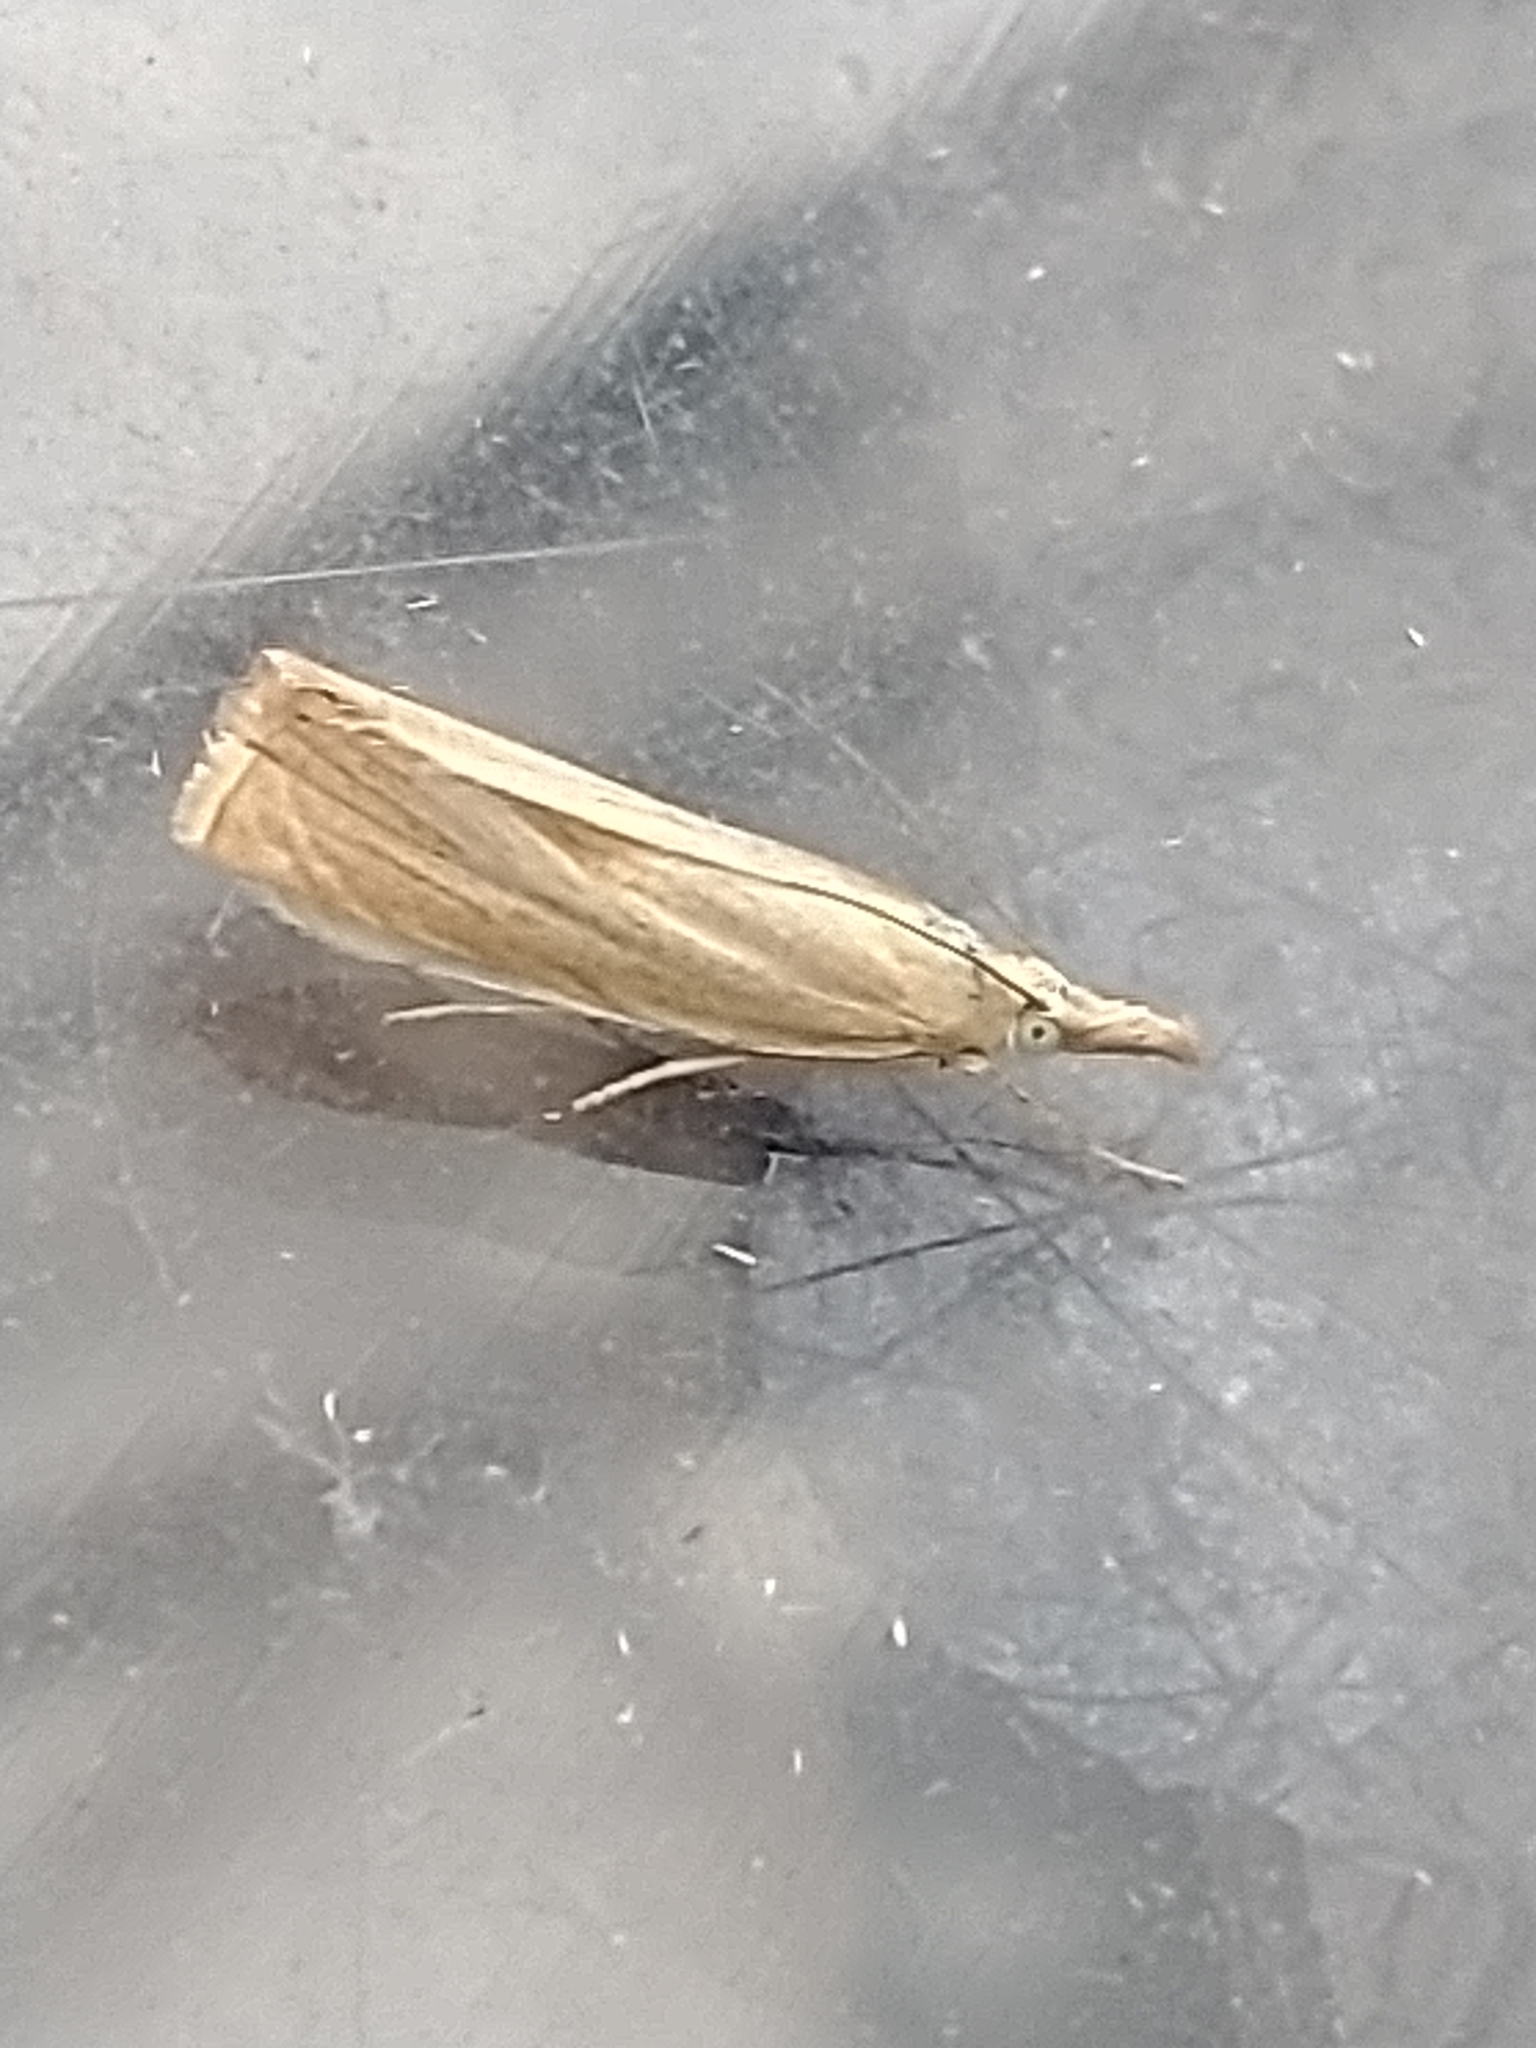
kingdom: Animalia
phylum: Arthropoda
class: Insecta
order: Lepidoptera
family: Crambidae
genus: Chrysoteuchia
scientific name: Chrysoteuchia culmella
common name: Garden grass-veneer
